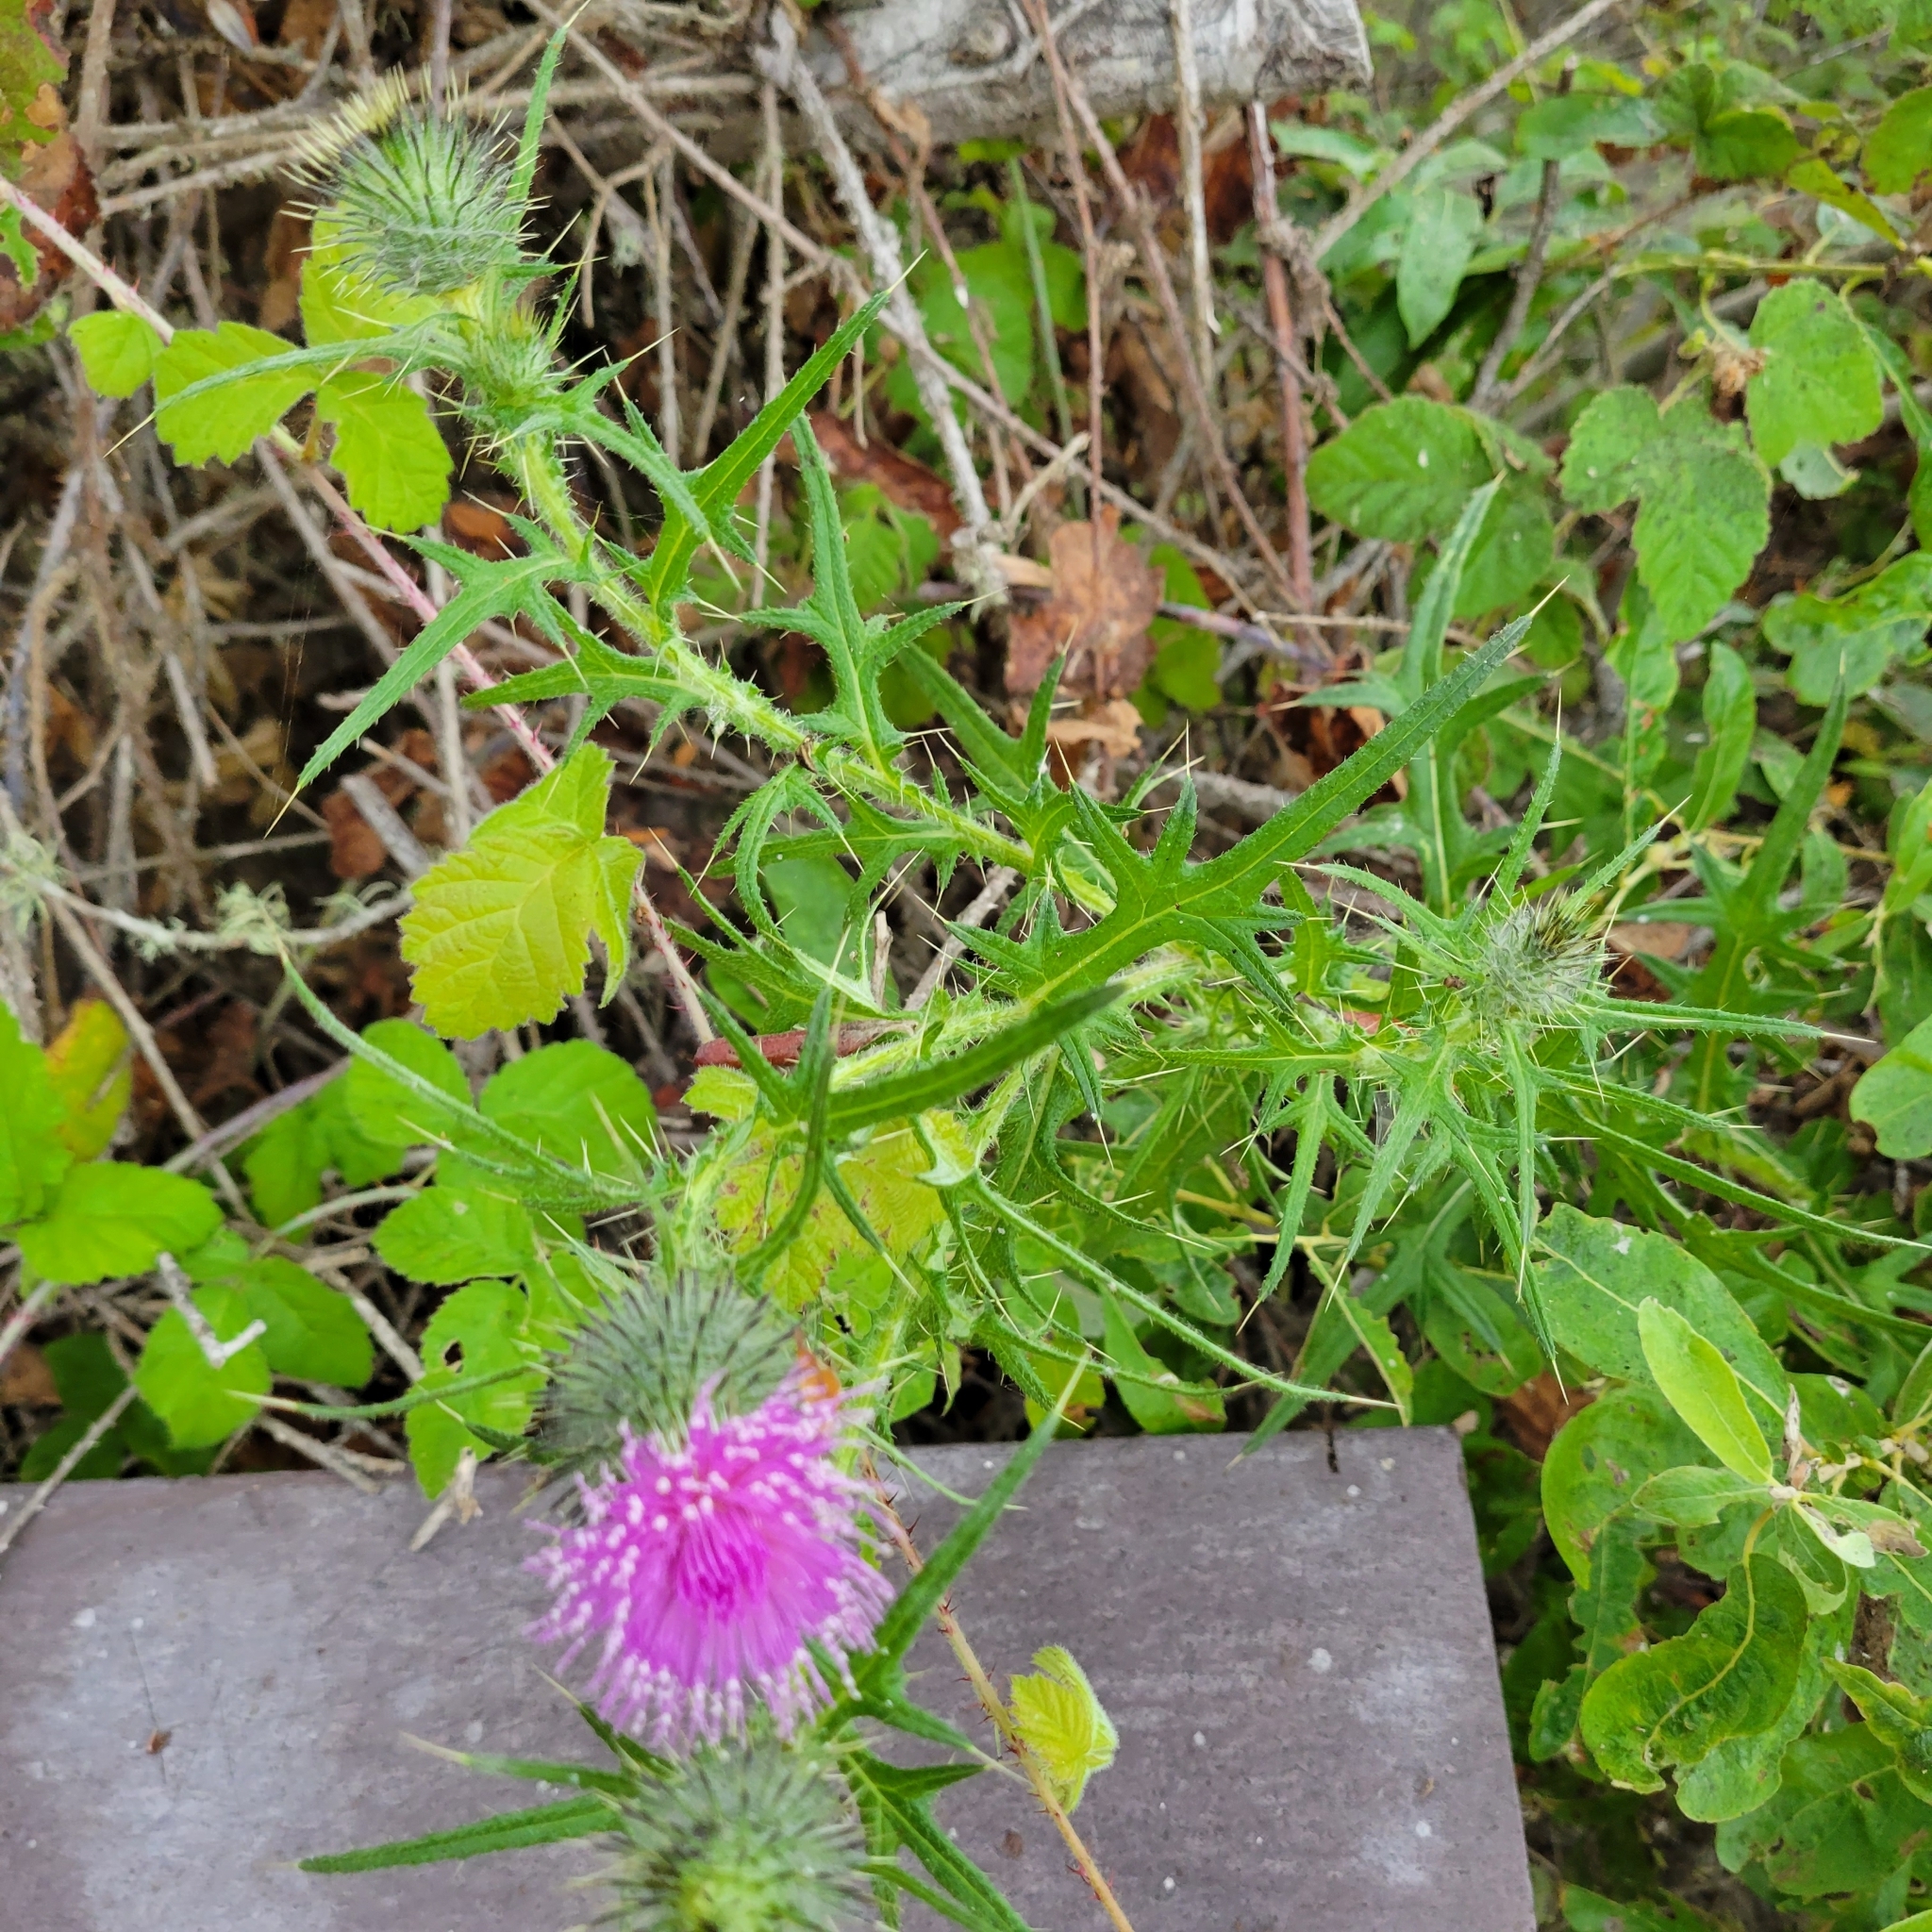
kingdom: Plantae
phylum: Tracheophyta
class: Magnoliopsida
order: Asterales
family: Asteraceae
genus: Cirsium
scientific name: Cirsium vulgare
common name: Bull thistle
